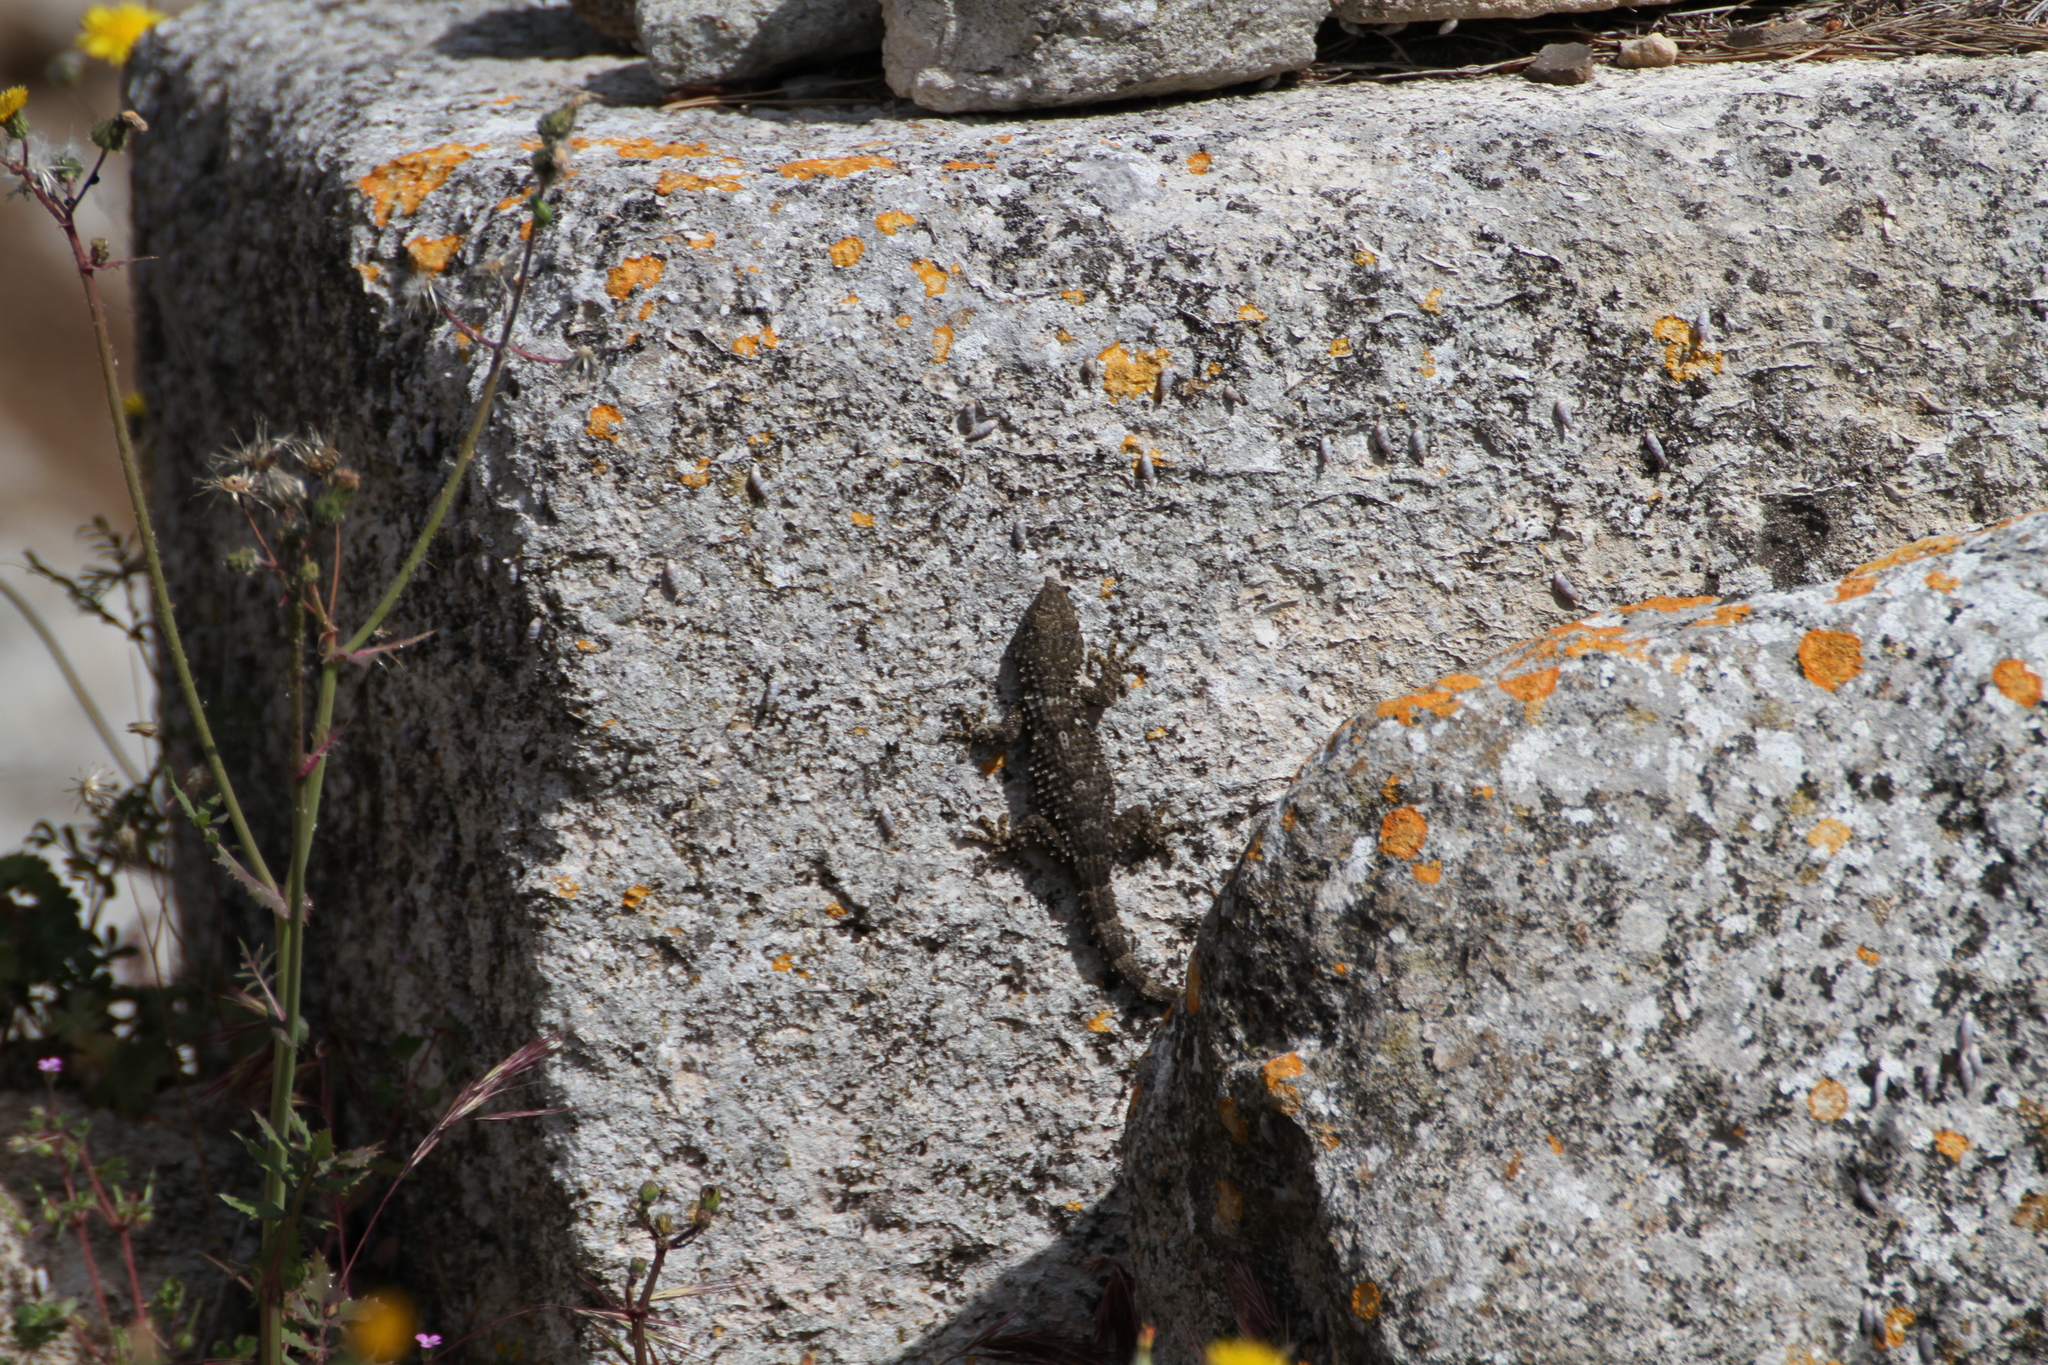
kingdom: Animalia
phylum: Chordata
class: Squamata
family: Phyllodactylidae
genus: Tarentola
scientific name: Tarentola mauritanica
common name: Moorish gecko
